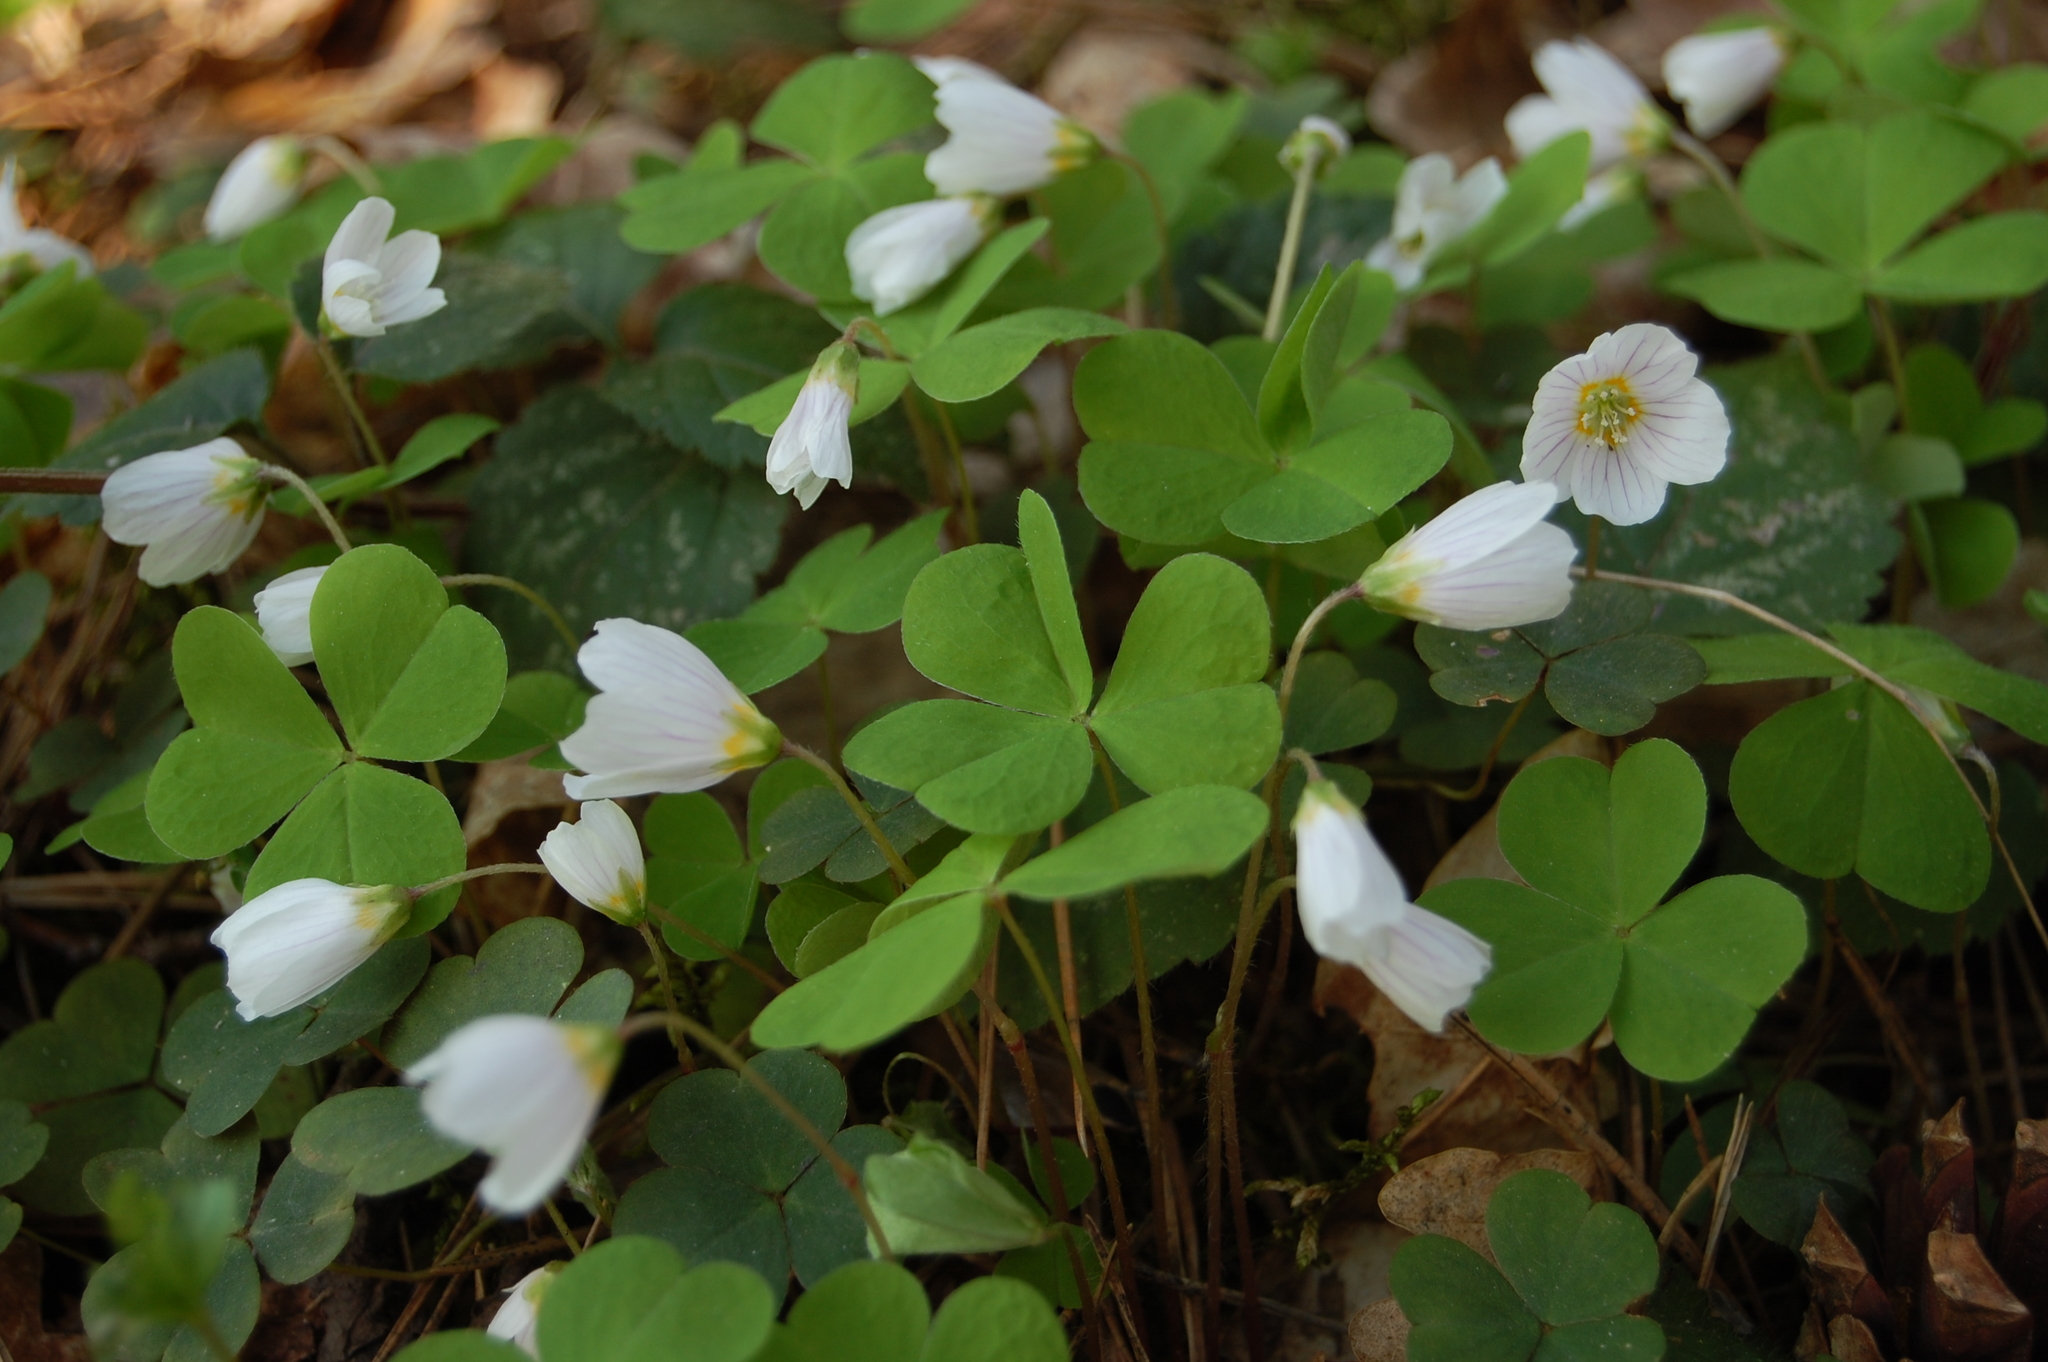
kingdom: Plantae
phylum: Tracheophyta
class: Magnoliopsida
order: Oxalidales
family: Oxalidaceae
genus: Oxalis
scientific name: Oxalis acetosella
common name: Wood-sorrel
